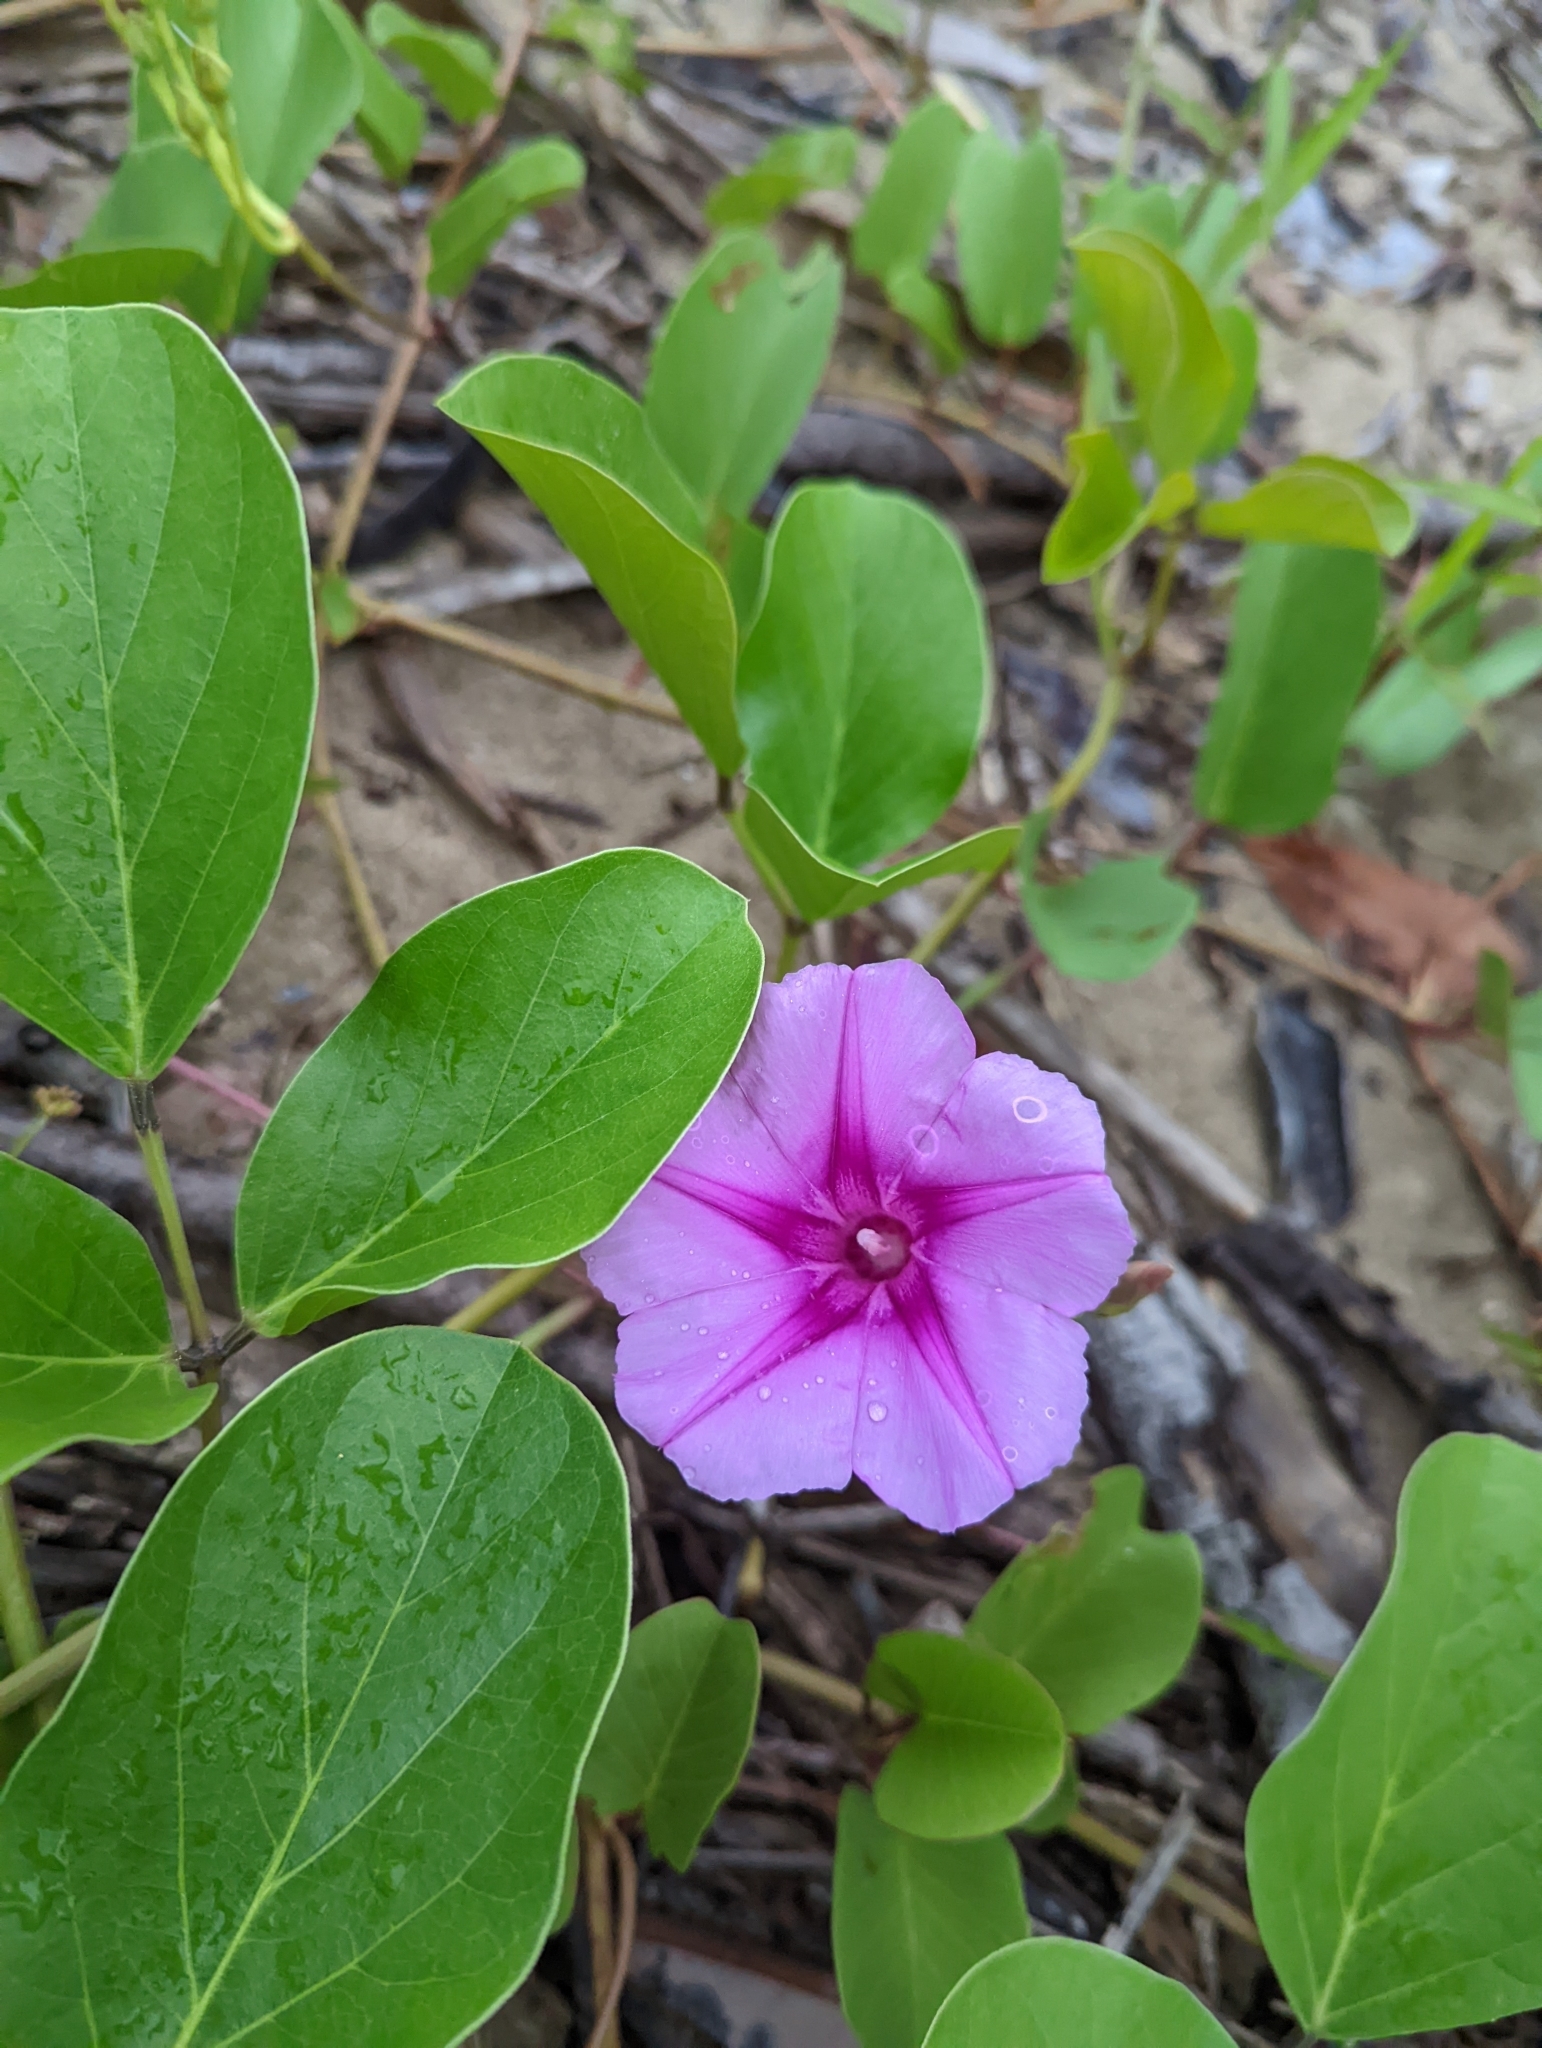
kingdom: Plantae
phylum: Tracheophyta
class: Magnoliopsida
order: Solanales
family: Convolvulaceae
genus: Ipomoea
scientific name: Ipomoea pes-caprae
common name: Beach morning glory
